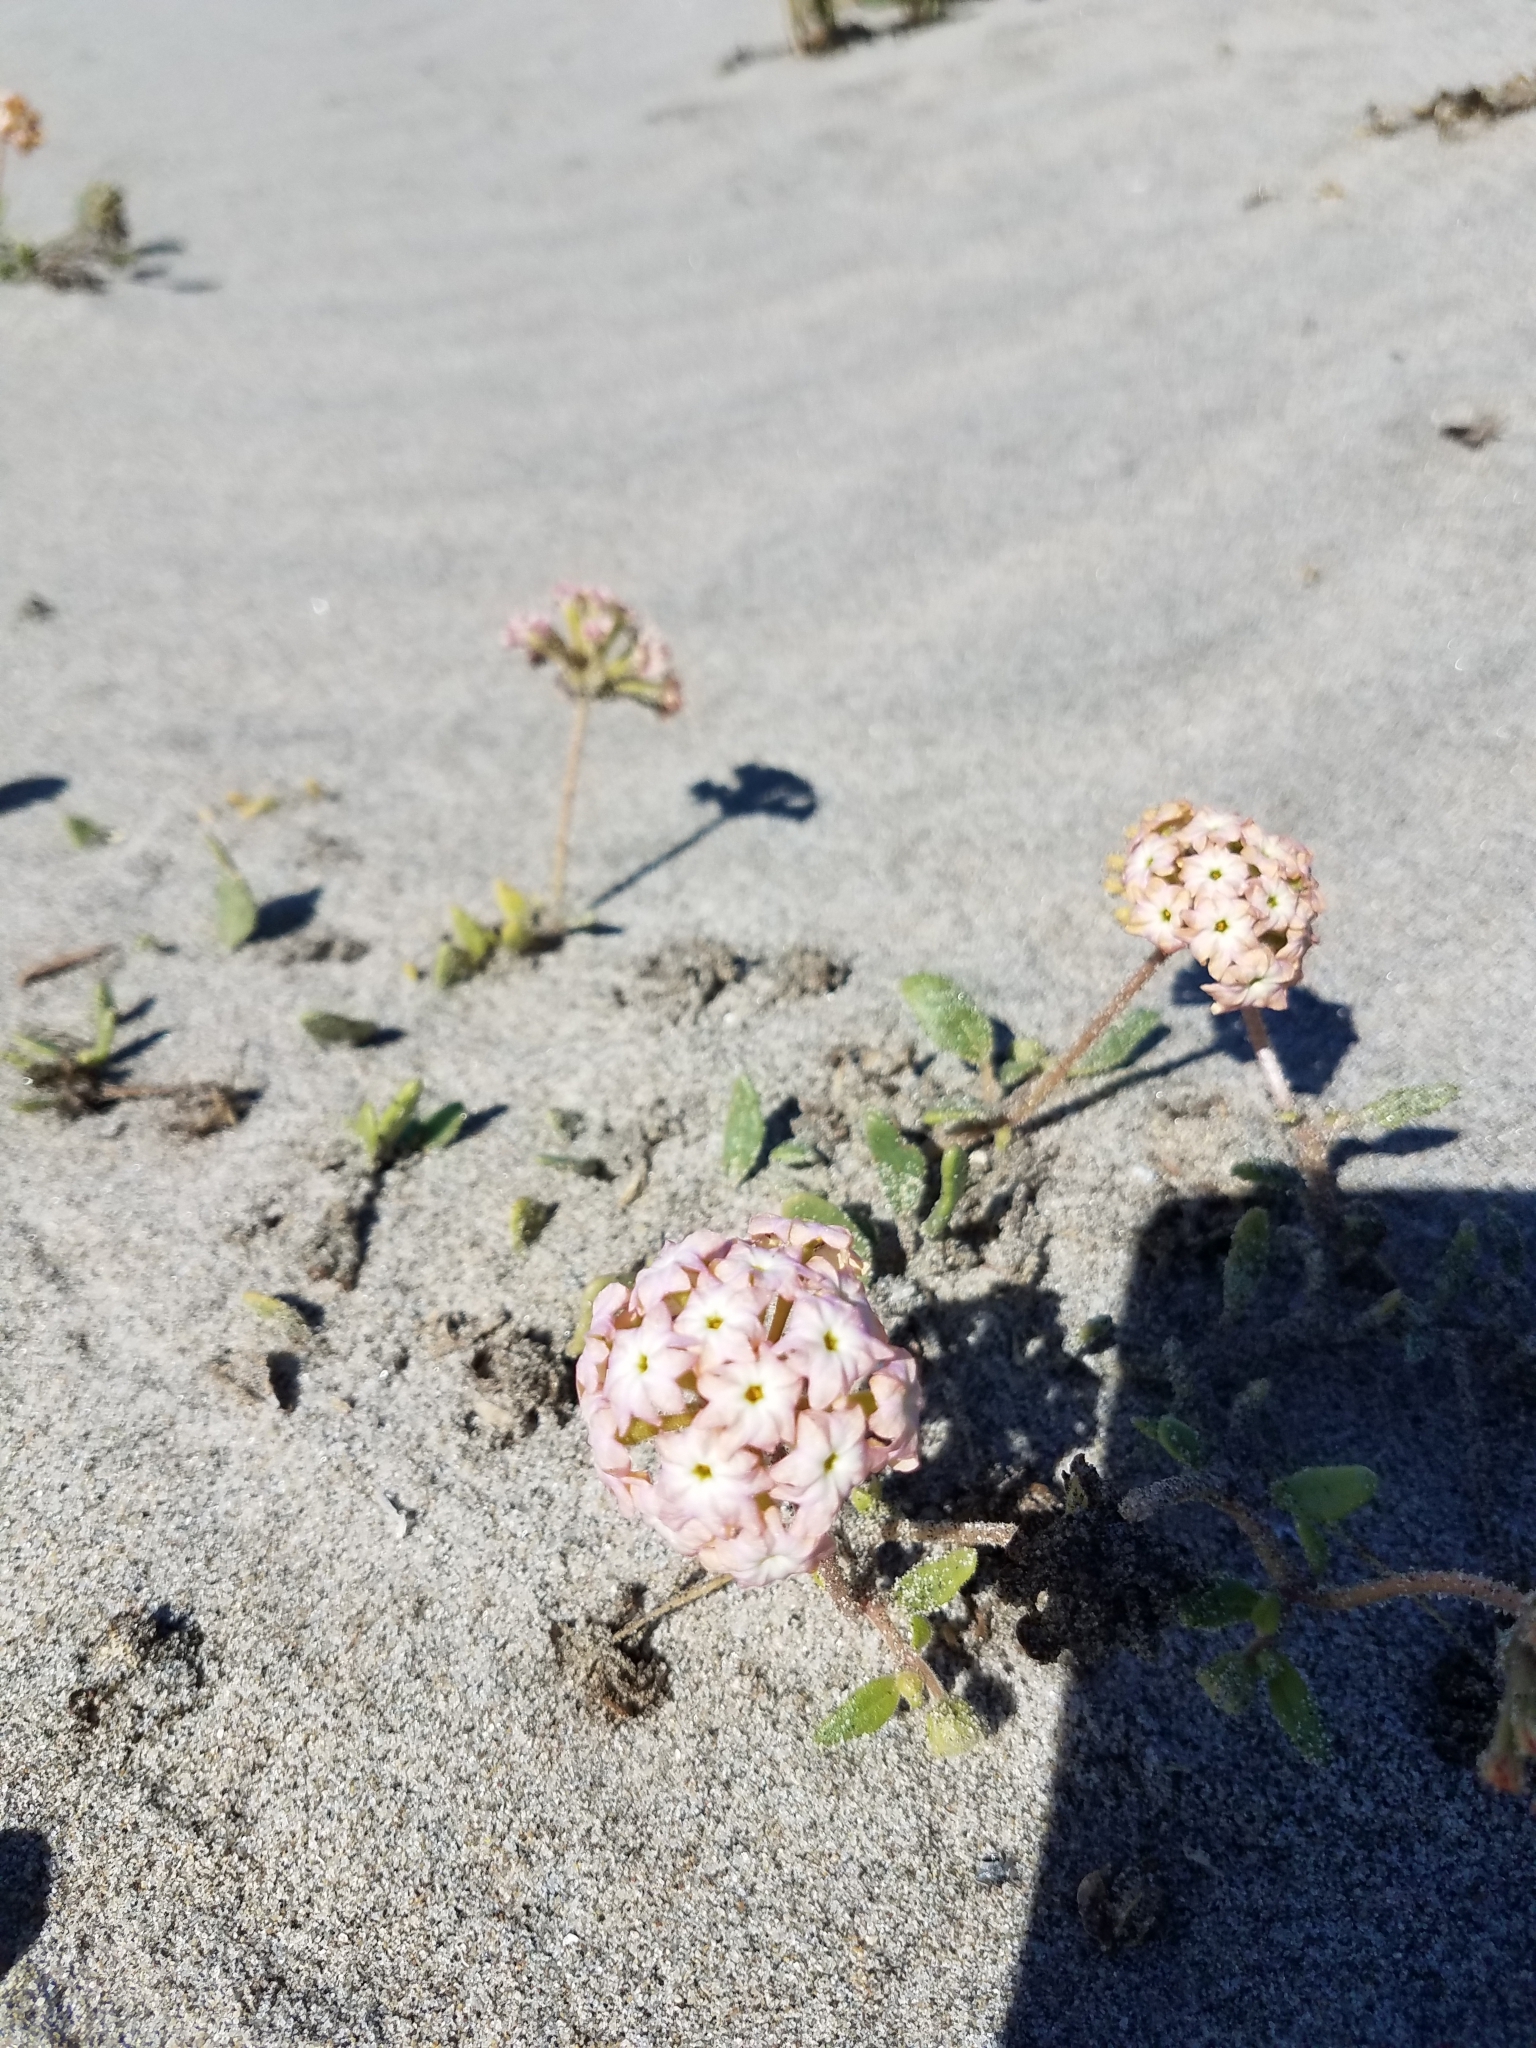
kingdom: Plantae
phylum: Tracheophyta
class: Magnoliopsida
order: Caryophyllales
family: Nyctaginaceae
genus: Abronia
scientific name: Abronia
